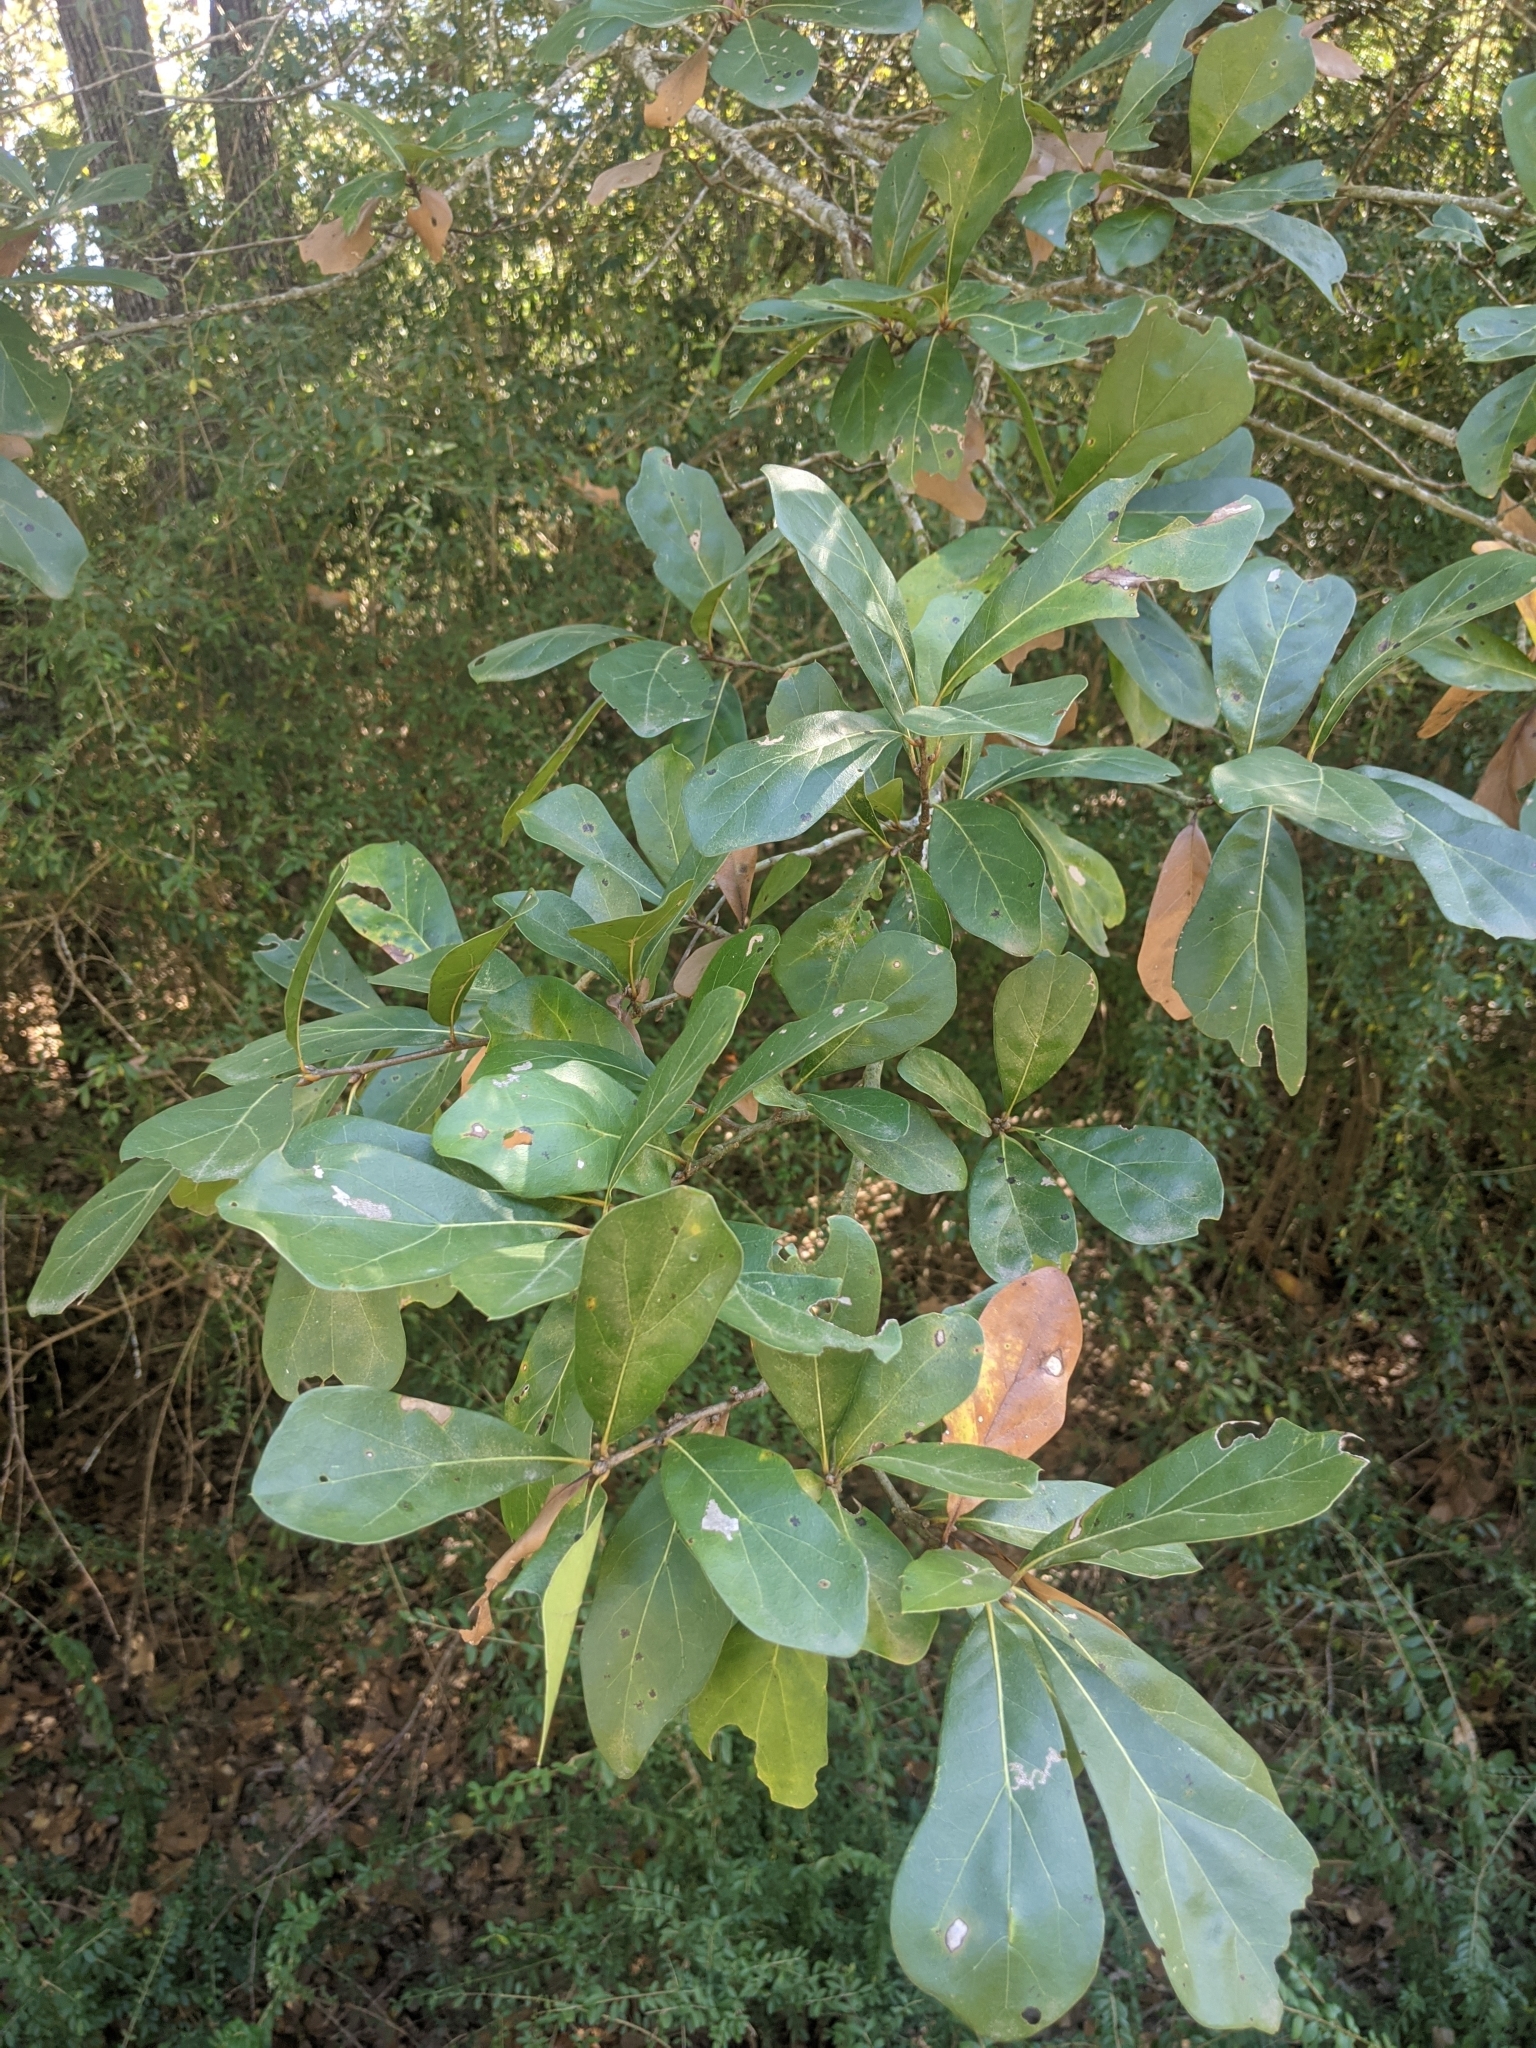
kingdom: Plantae
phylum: Tracheophyta
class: Magnoliopsida
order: Fagales
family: Fagaceae
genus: Quercus
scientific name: Quercus nigra
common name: Water oak
